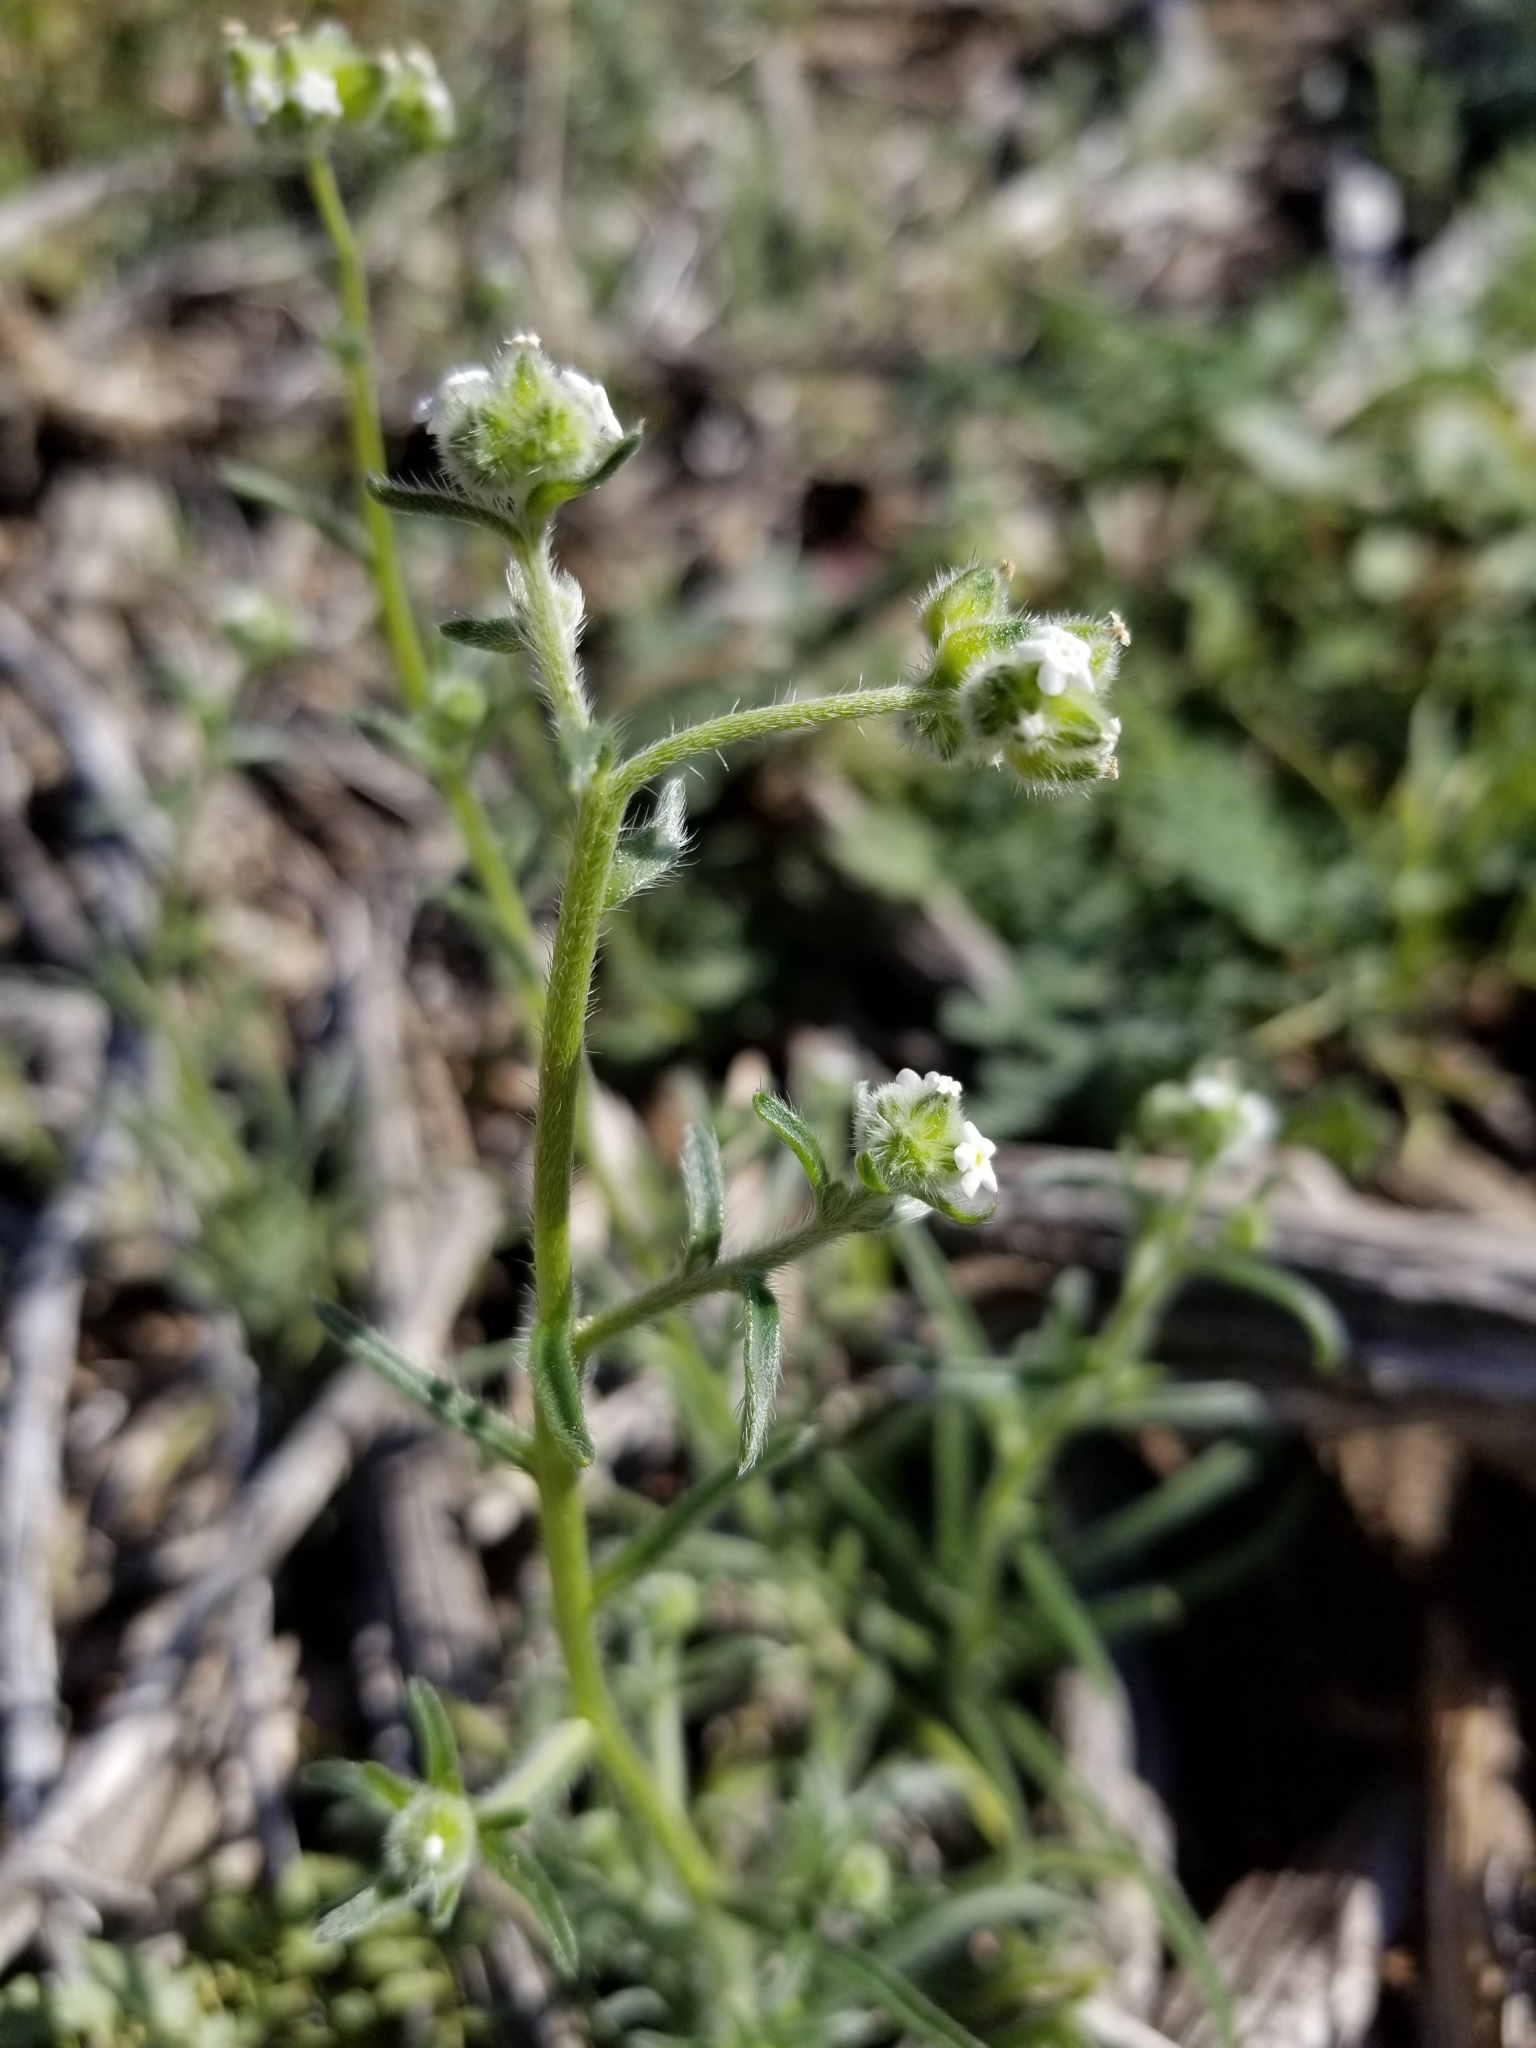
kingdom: Plantae
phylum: Tracheophyta
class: Magnoliopsida
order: Boraginales
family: Boraginaceae
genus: Cryptantha
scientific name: Cryptantha pterocarya
